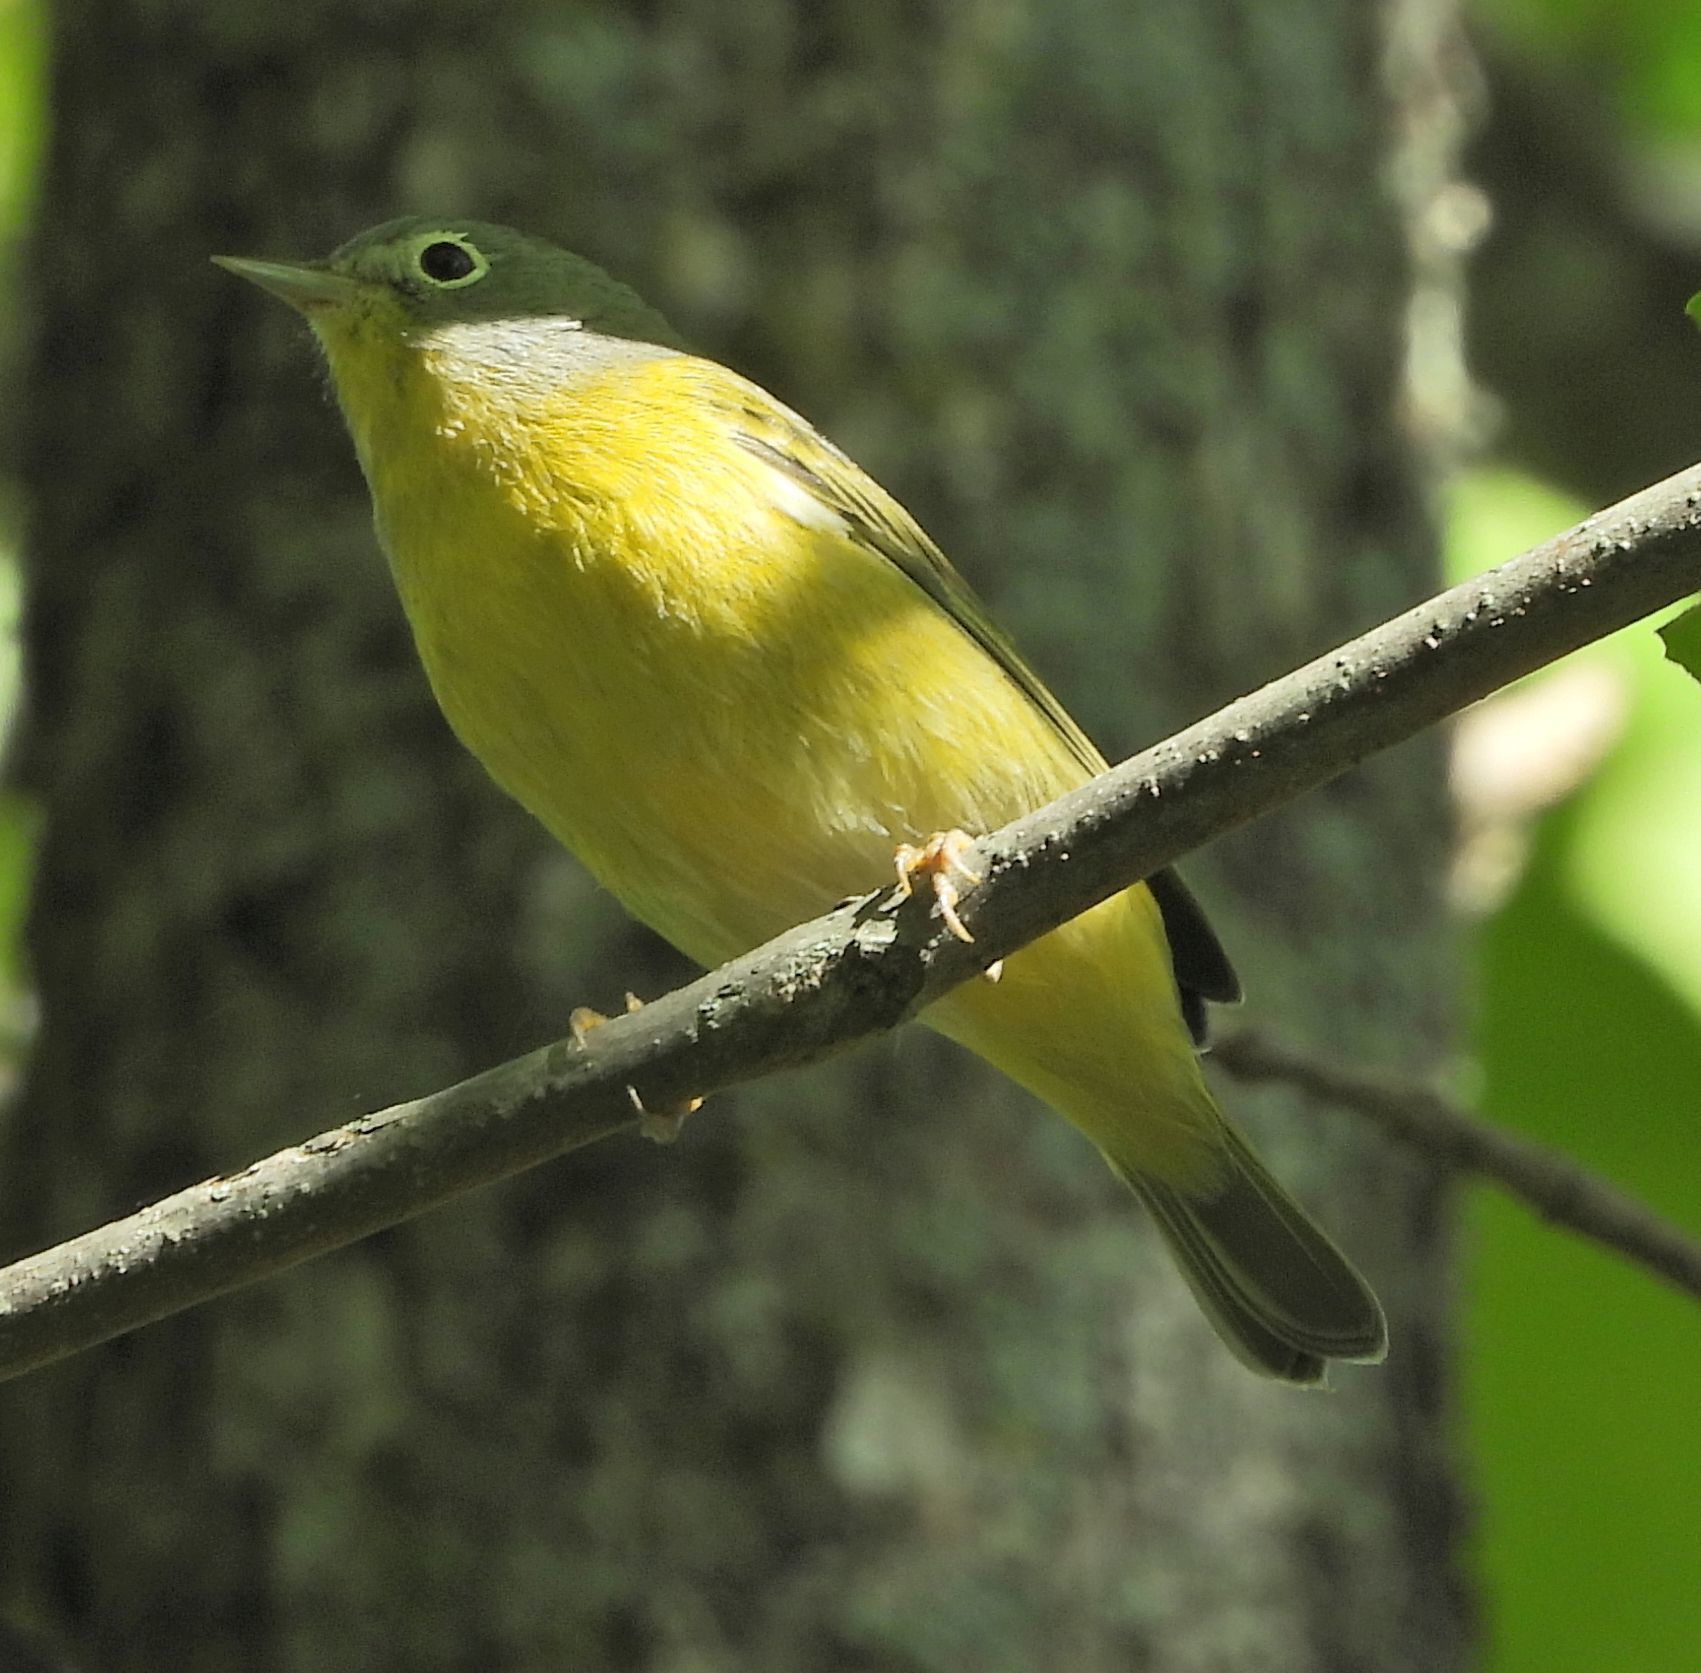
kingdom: Animalia
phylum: Chordata
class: Aves
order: Passeriformes
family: Parulidae
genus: Leiothlypis
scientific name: Leiothlypis ruficapilla
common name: Nashville warbler
